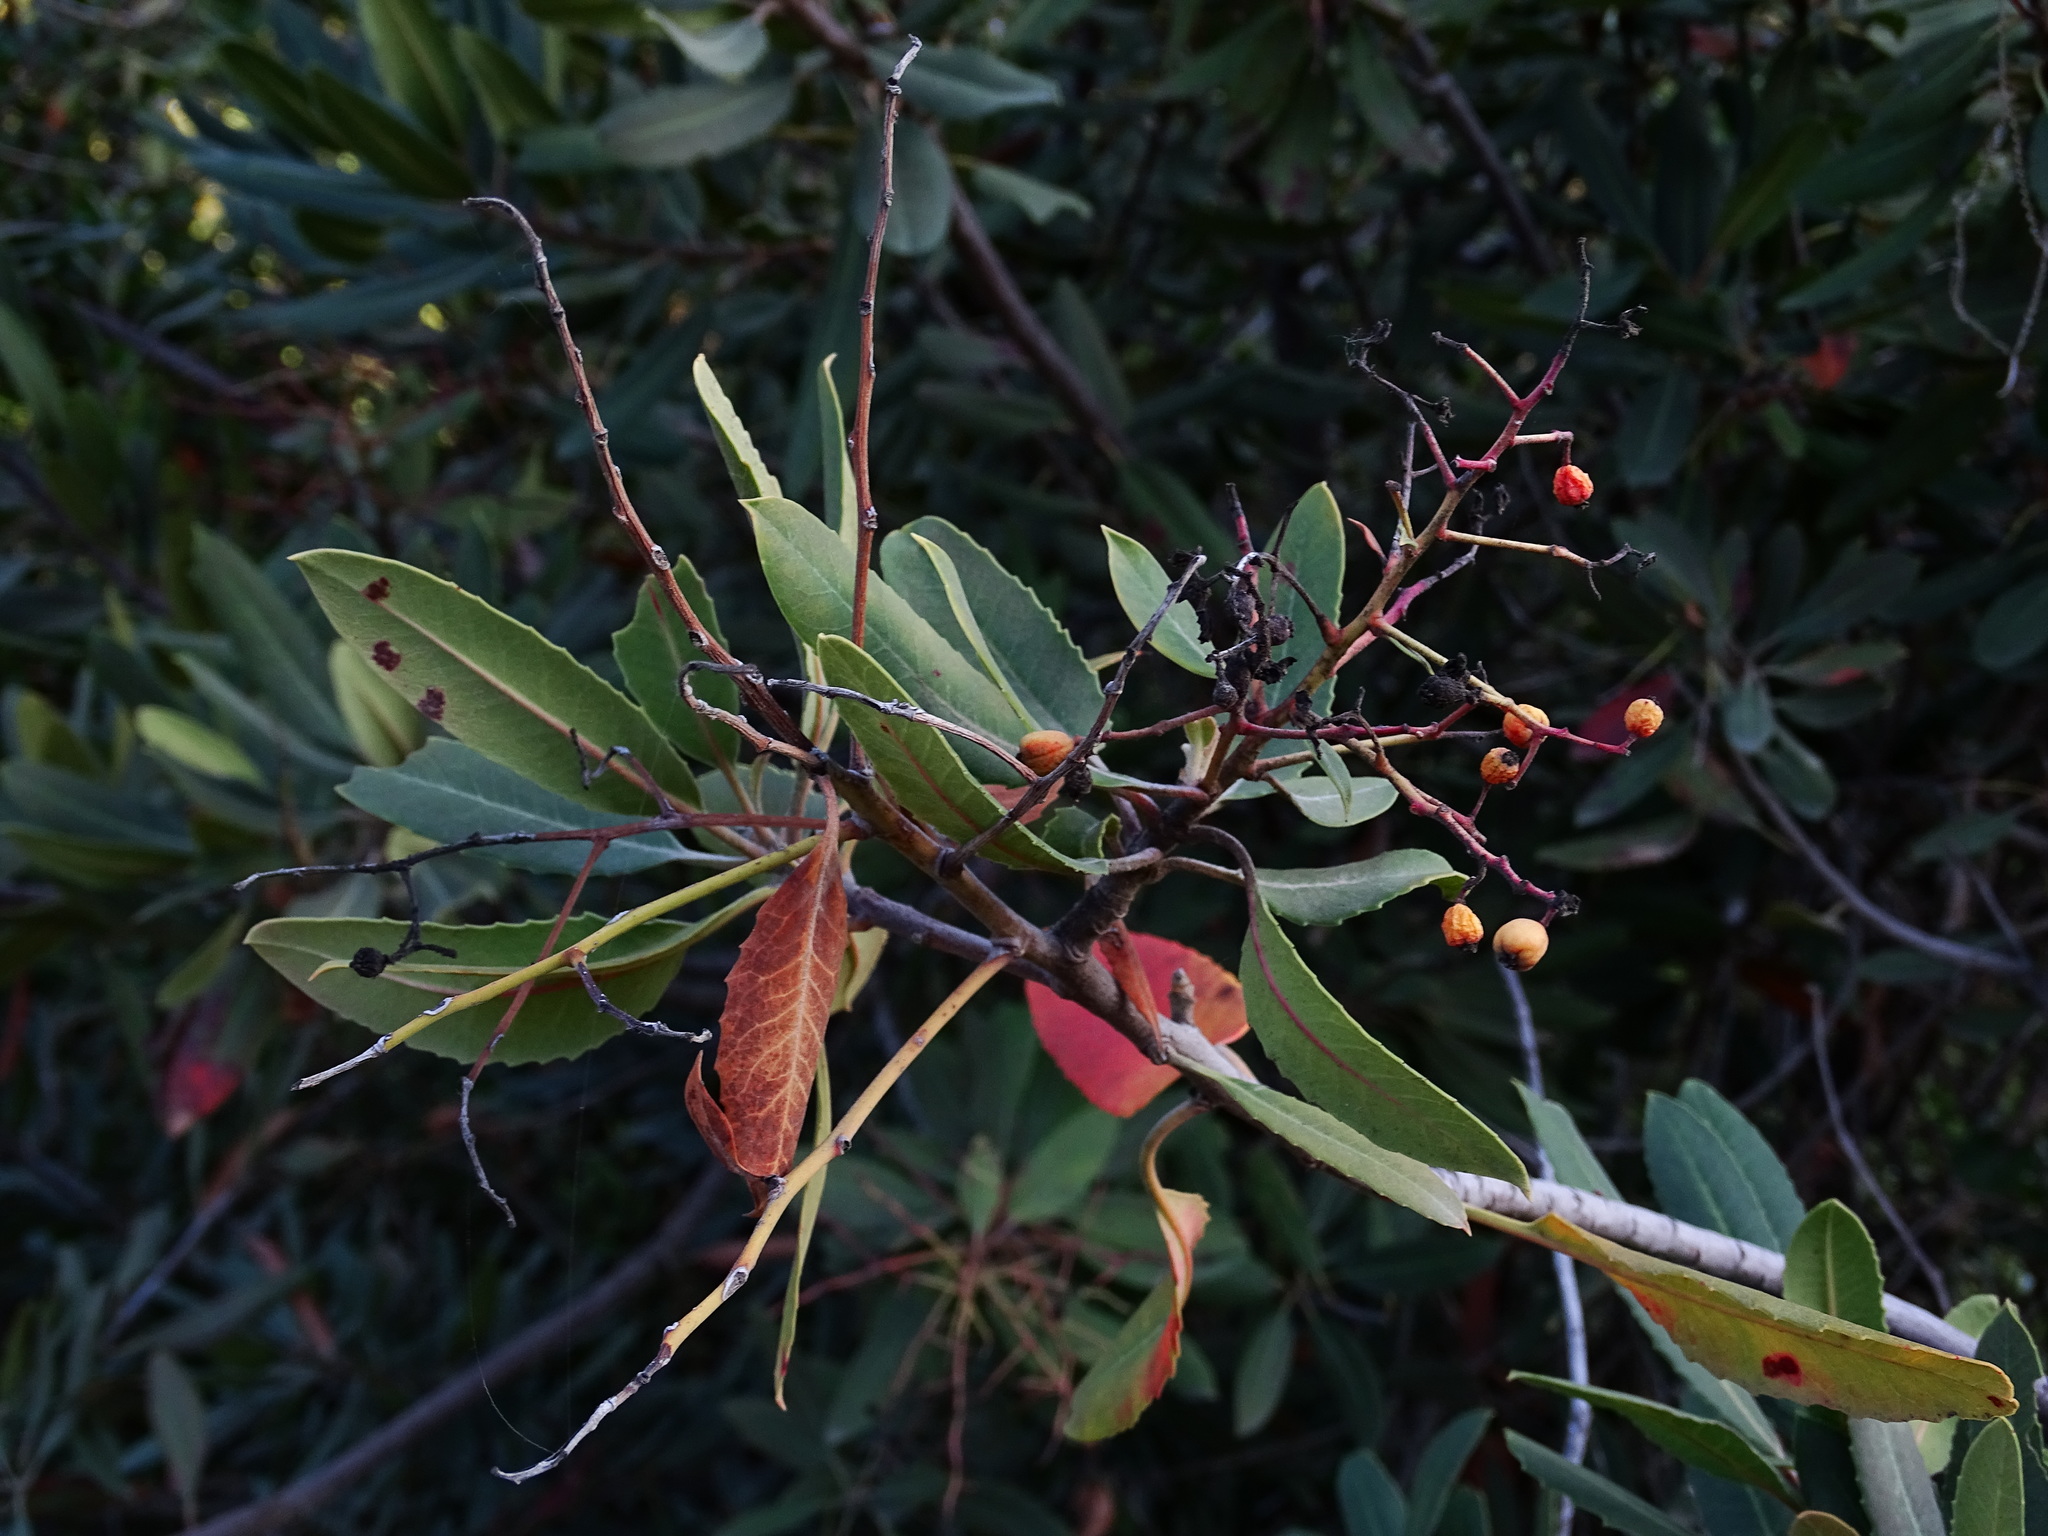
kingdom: Plantae
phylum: Tracheophyta
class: Magnoliopsida
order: Rosales
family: Rosaceae
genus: Heteromeles
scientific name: Heteromeles arbutifolia
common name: California-holly
